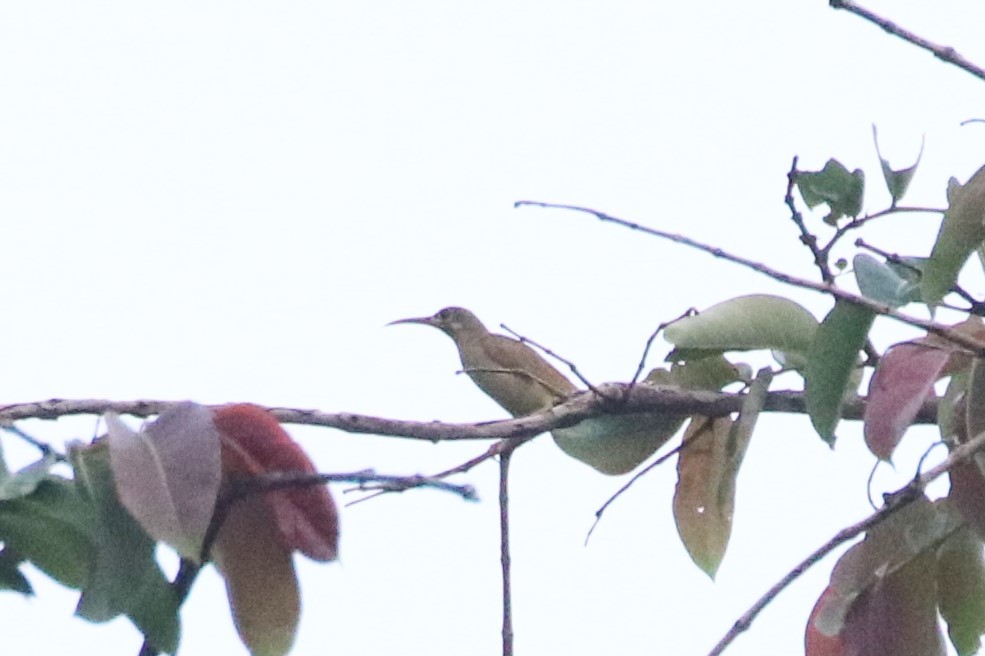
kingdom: Animalia
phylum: Chordata
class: Aves
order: Passeriformes
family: Nectariniidae
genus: Arachnothera
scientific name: Arachnothera chrysogenys
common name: Yellow-eared spiderhunter
